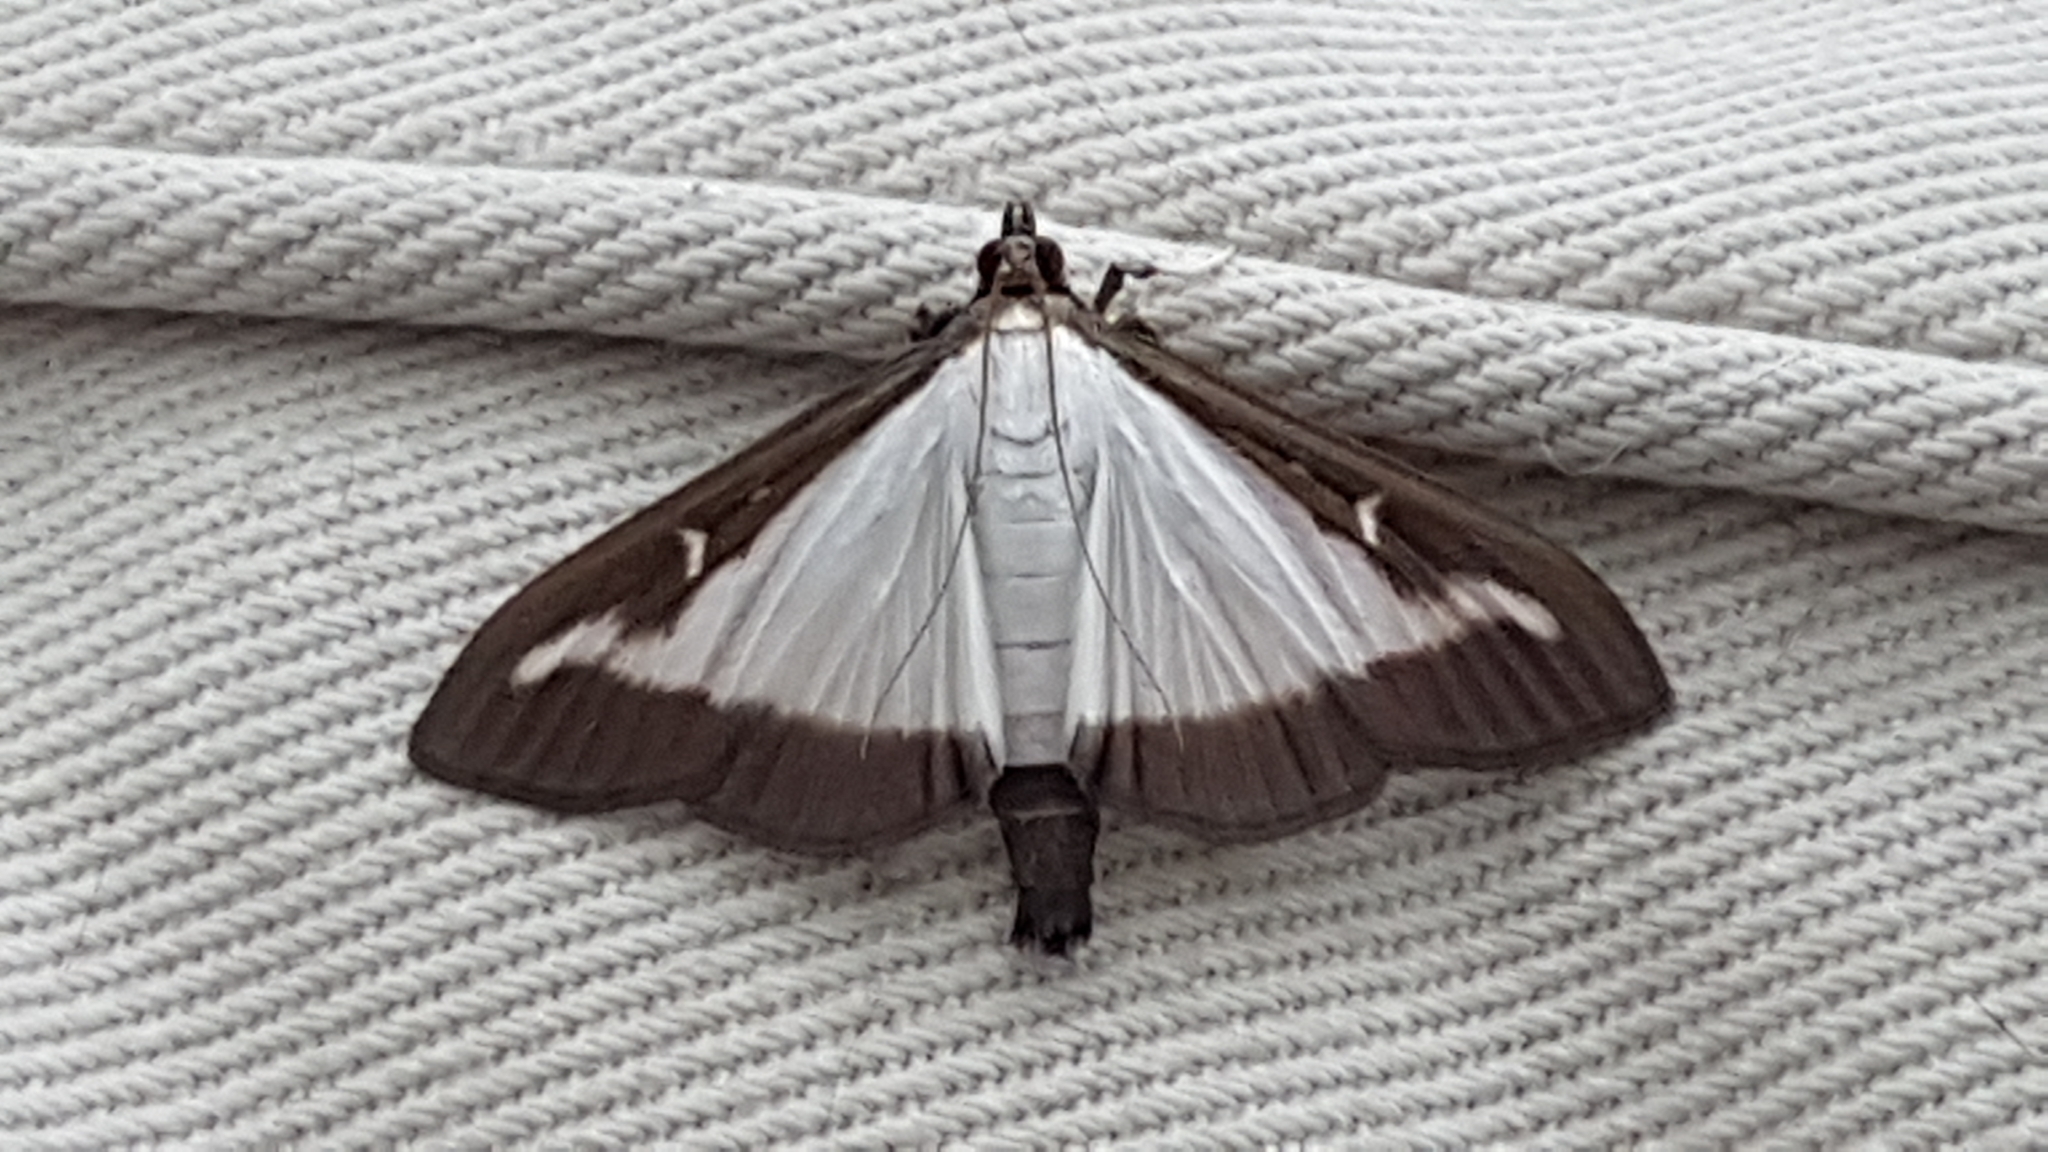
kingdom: Animalia
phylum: Arthropoda
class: Insecta
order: Lepidoptera
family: Crambidae
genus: Cydalima
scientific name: Cydalima perspectalis
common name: Box tree moth
